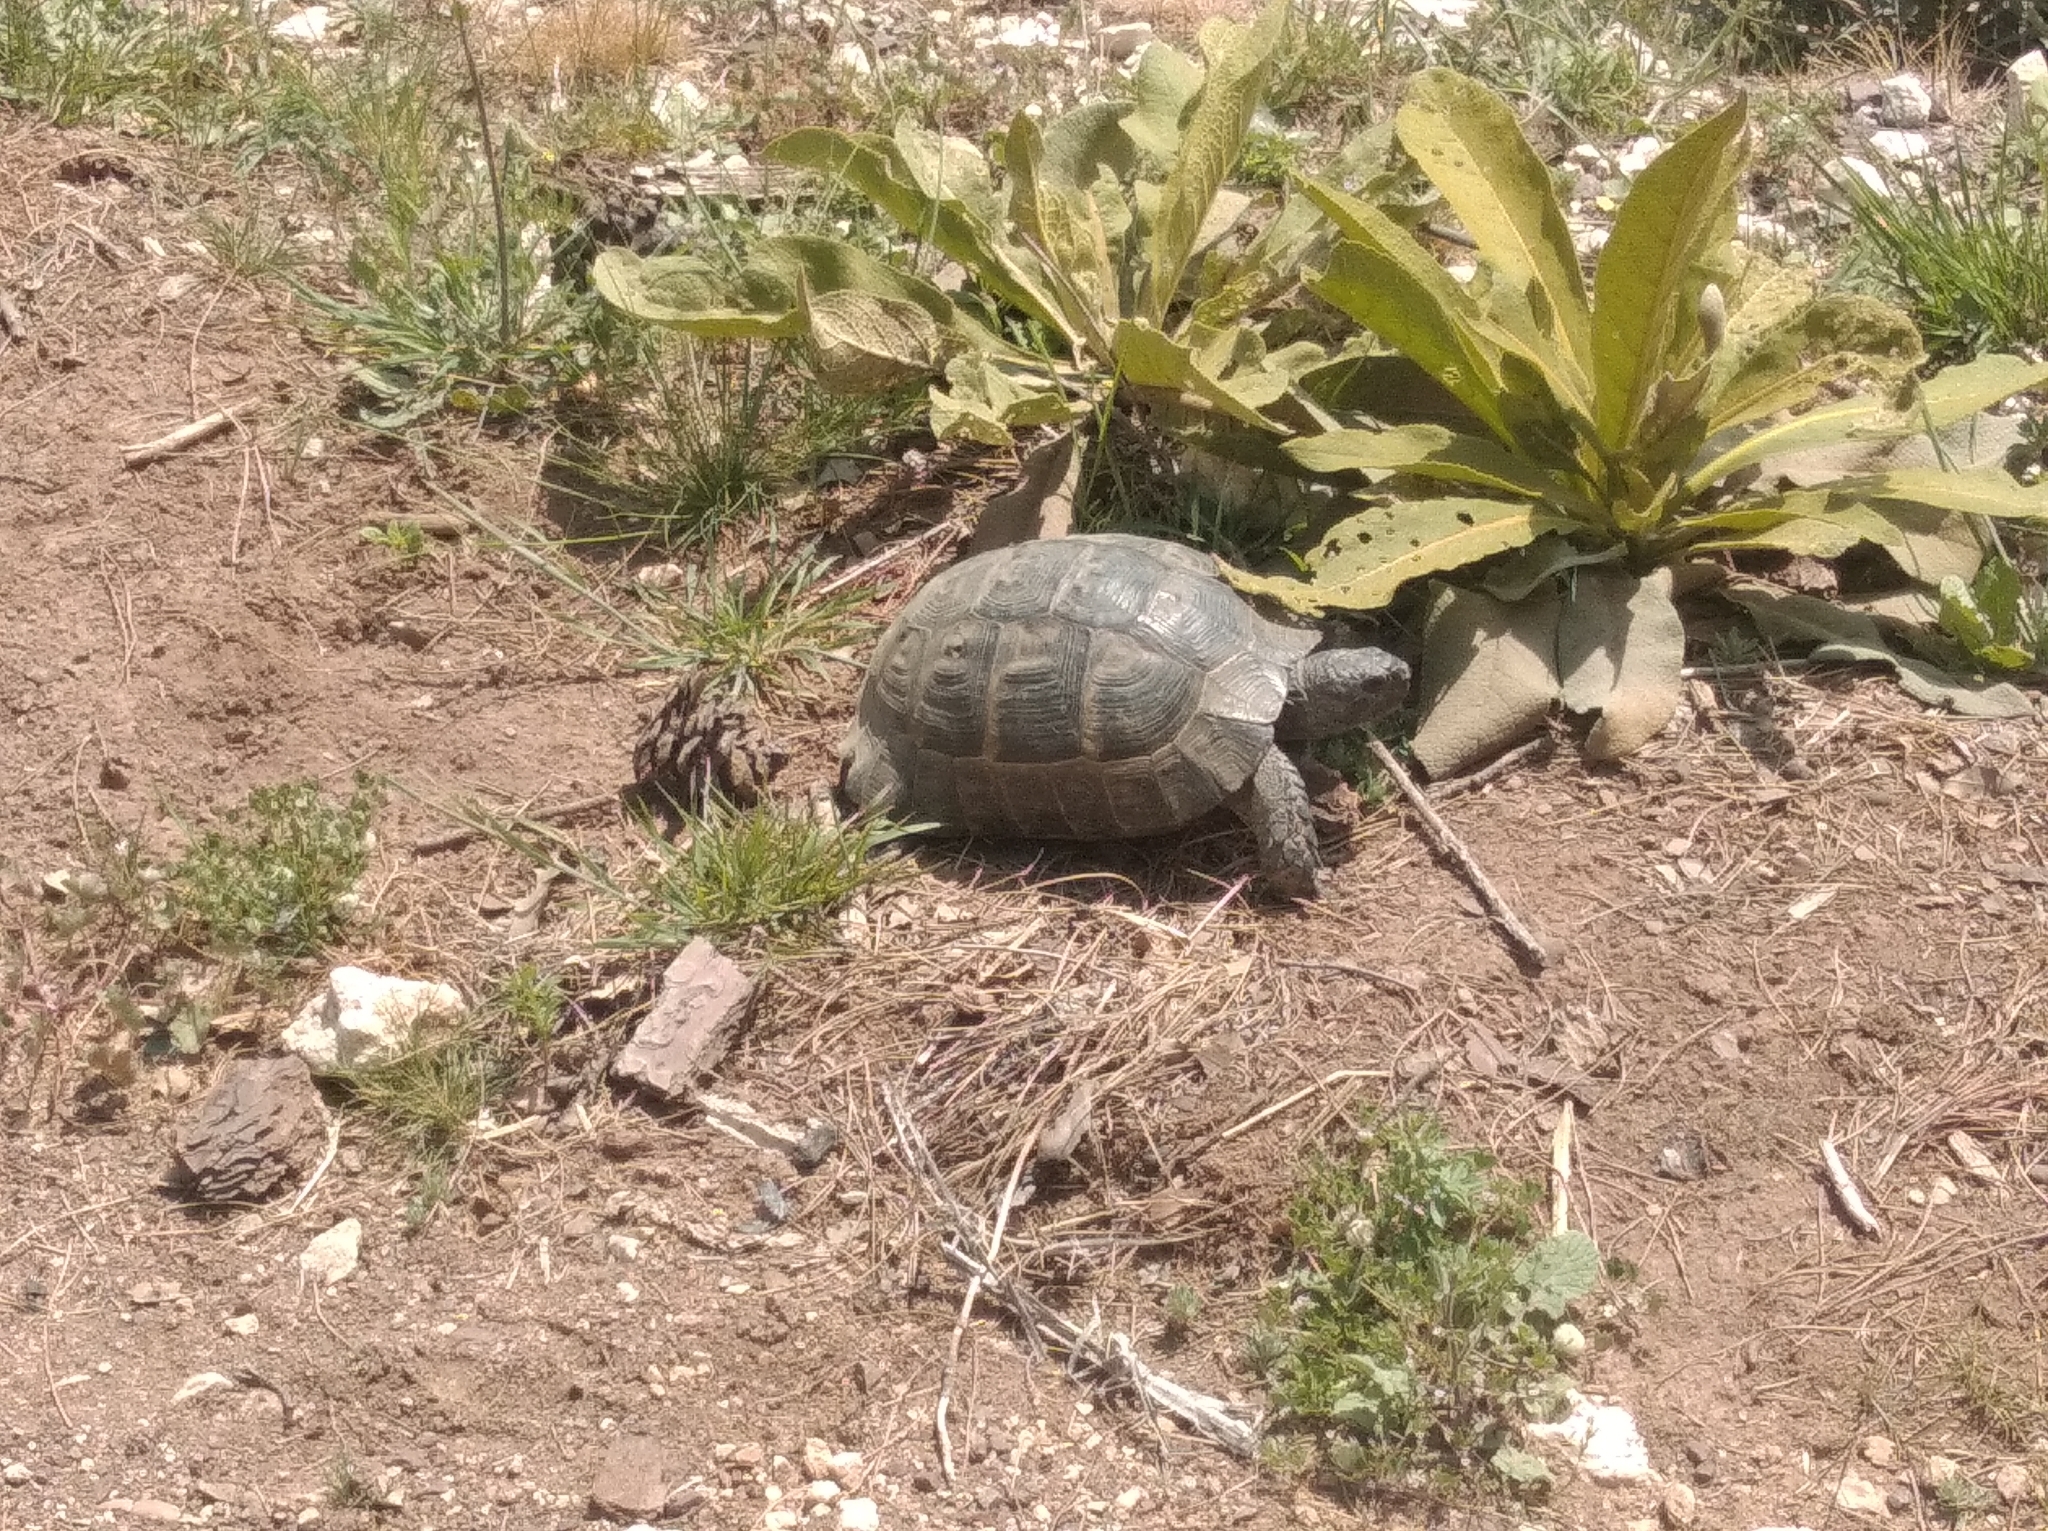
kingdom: Animalia
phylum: Chordata
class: Testudines
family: Testudinidae
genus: Testudo
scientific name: Testudo graeca
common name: Common tortoise
